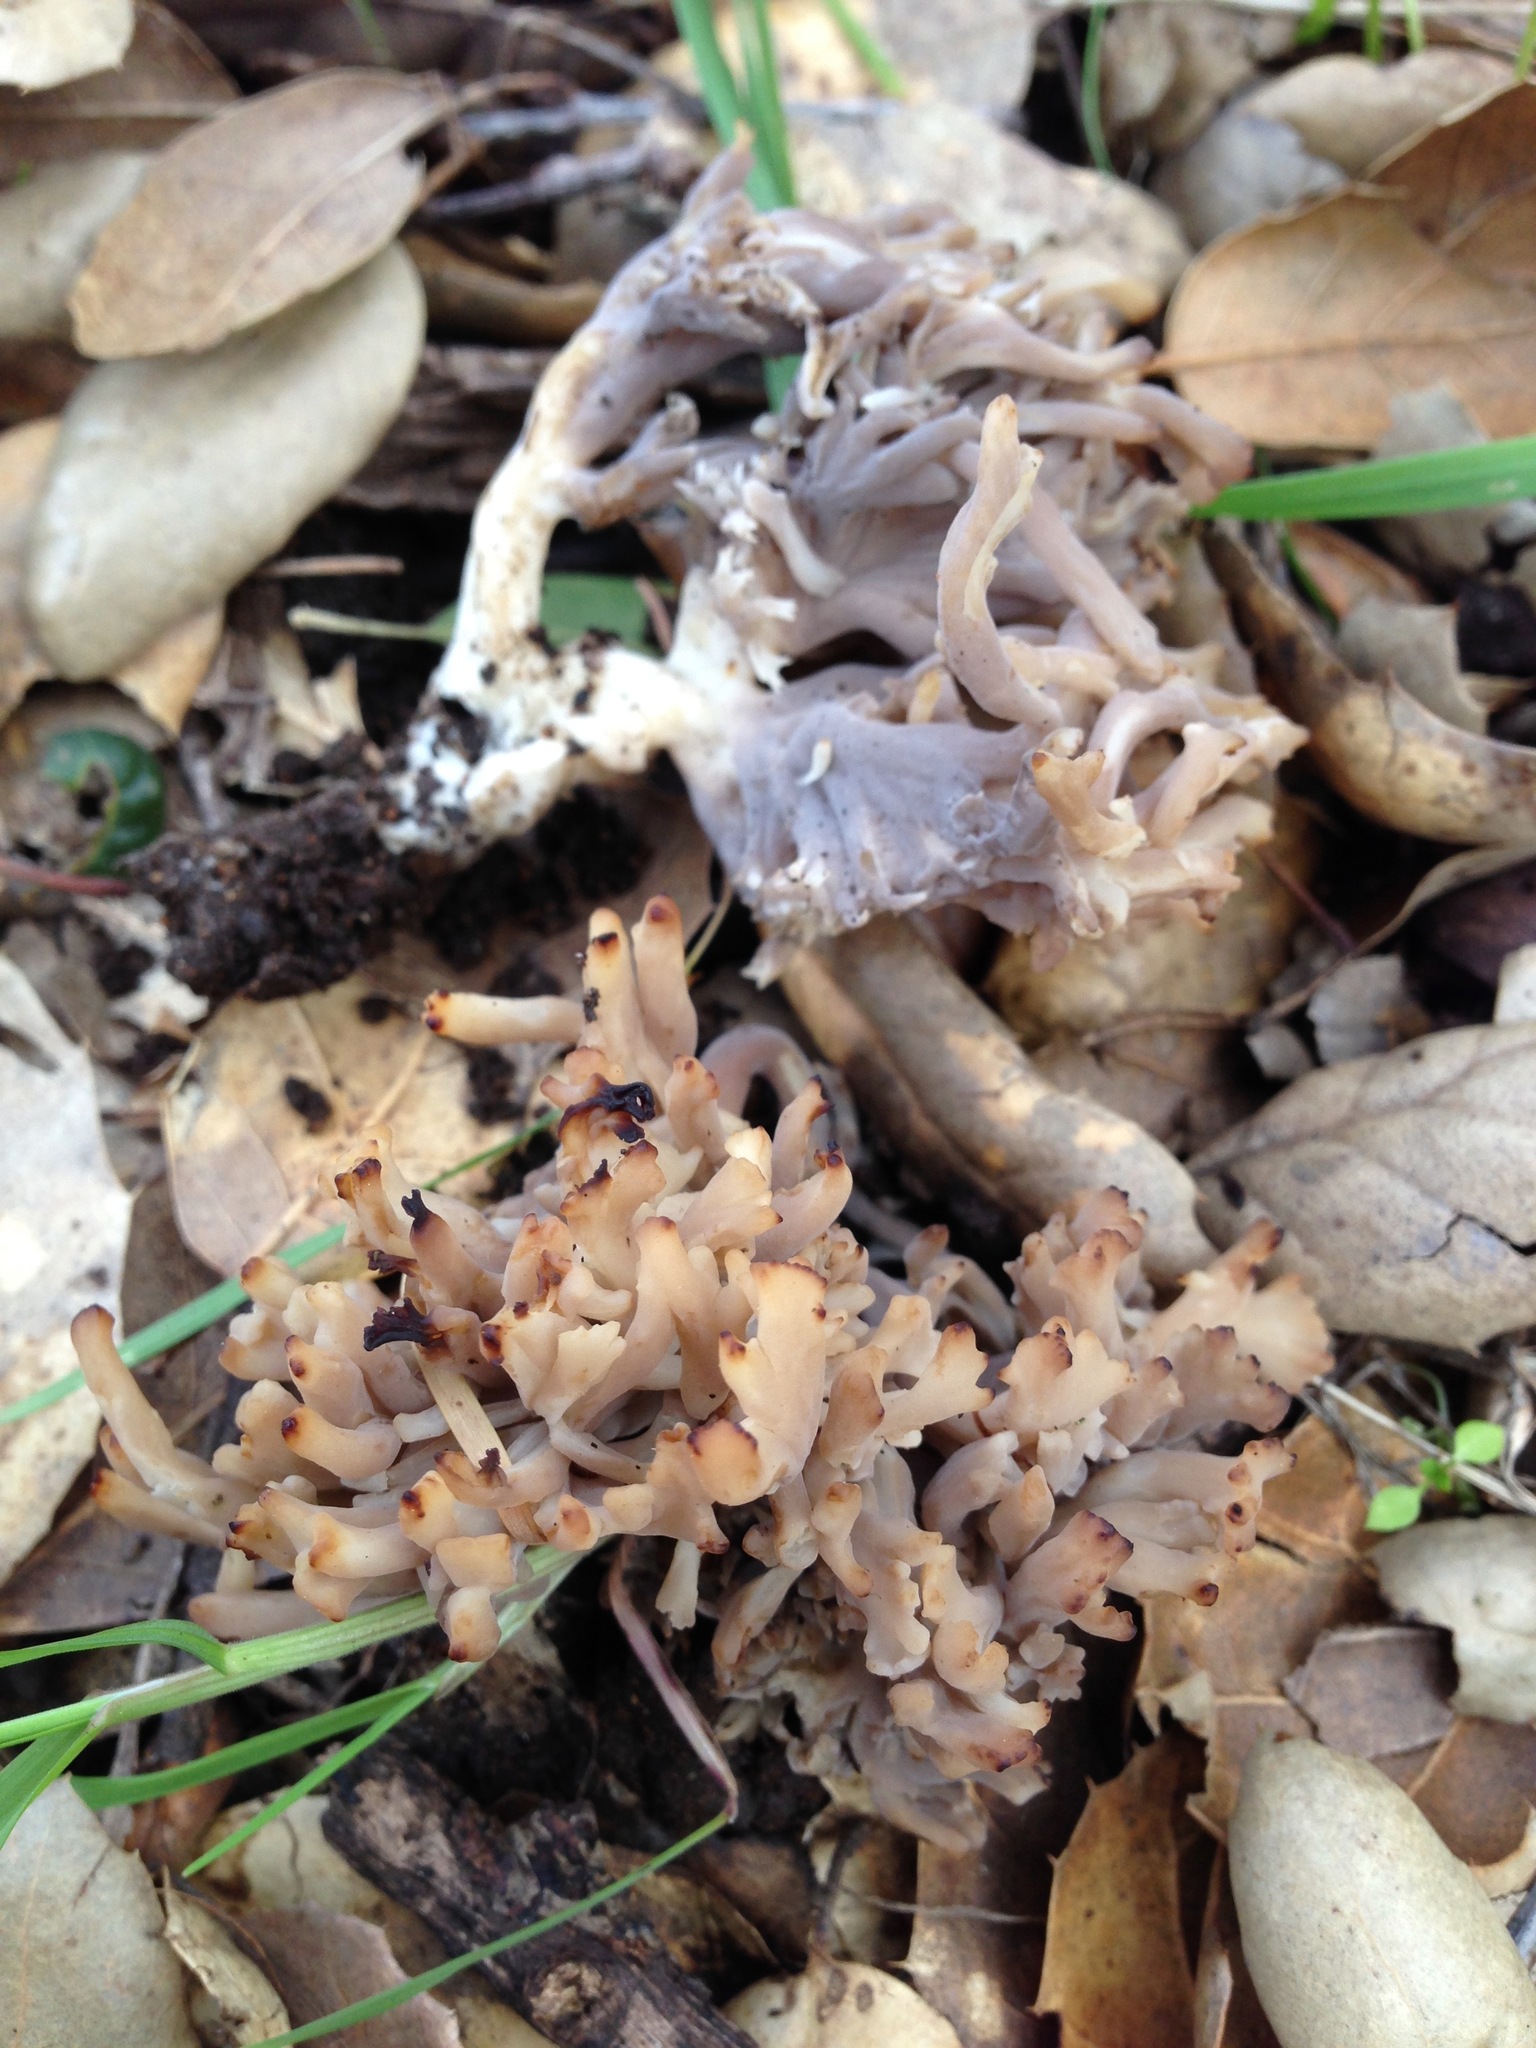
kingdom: Fungi
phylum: Basidiomycota
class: Agaricomycetes
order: Cantharellales
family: Hydnaceae
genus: Clavulina
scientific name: Clavulina cinerea
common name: Grey coral
